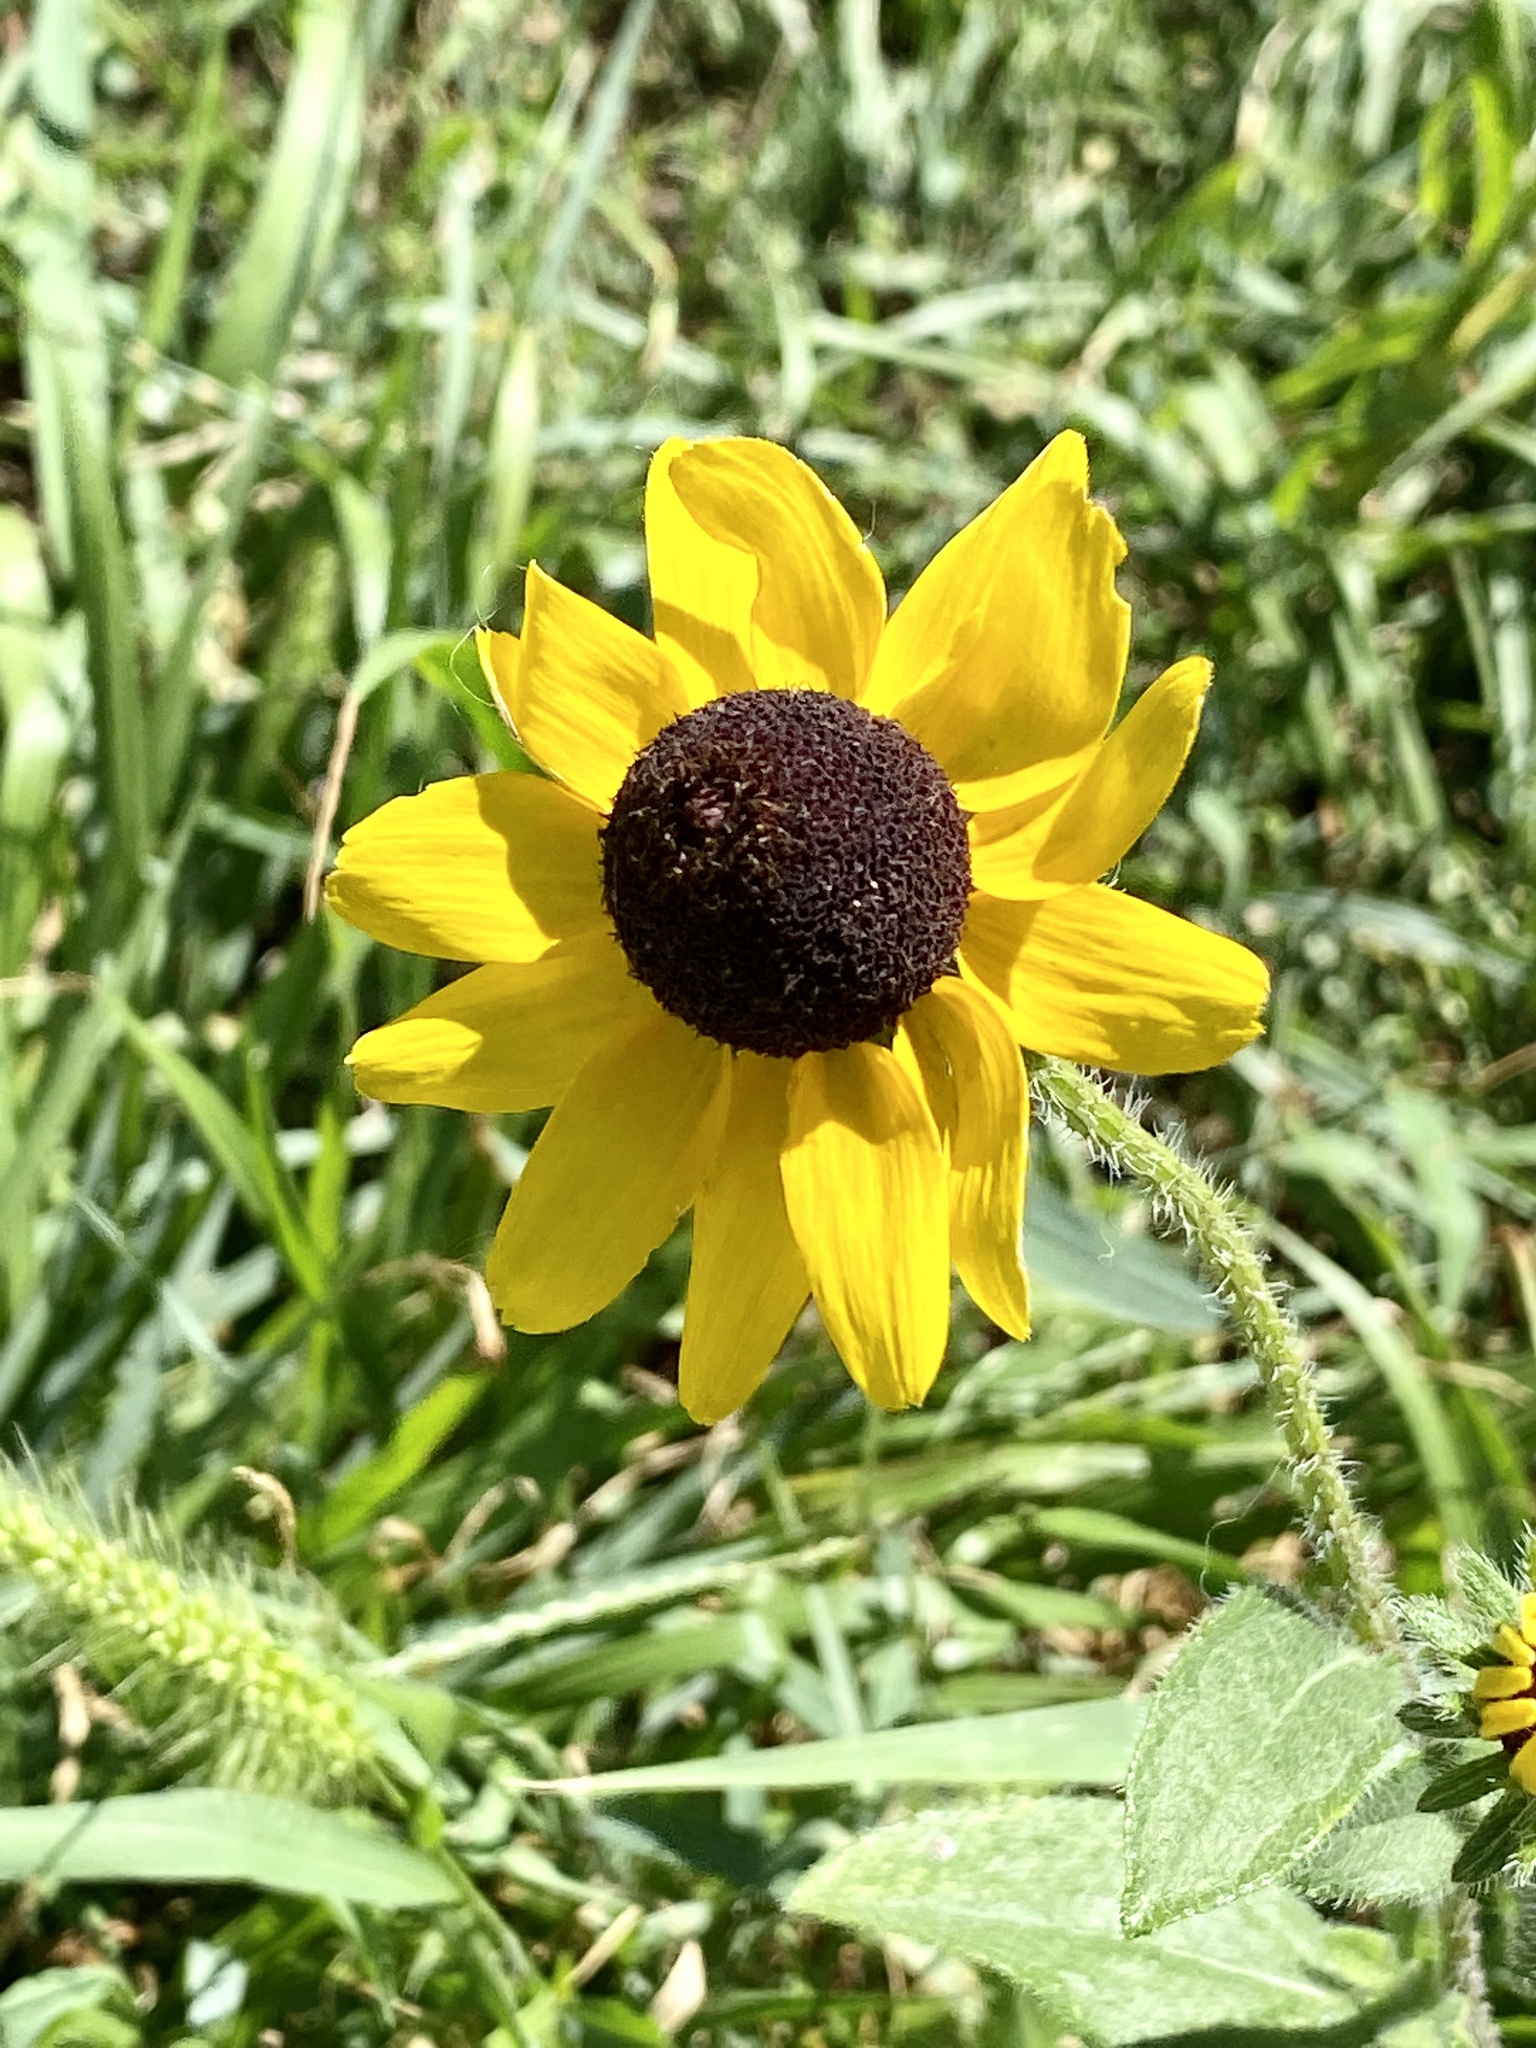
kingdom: Plantae
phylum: Tracheophyta
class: Magnoliopsida
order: Asterales
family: Asteraceae
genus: Rudbeckia
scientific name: Rudbeckia hirta
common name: Black-eyed-susan
